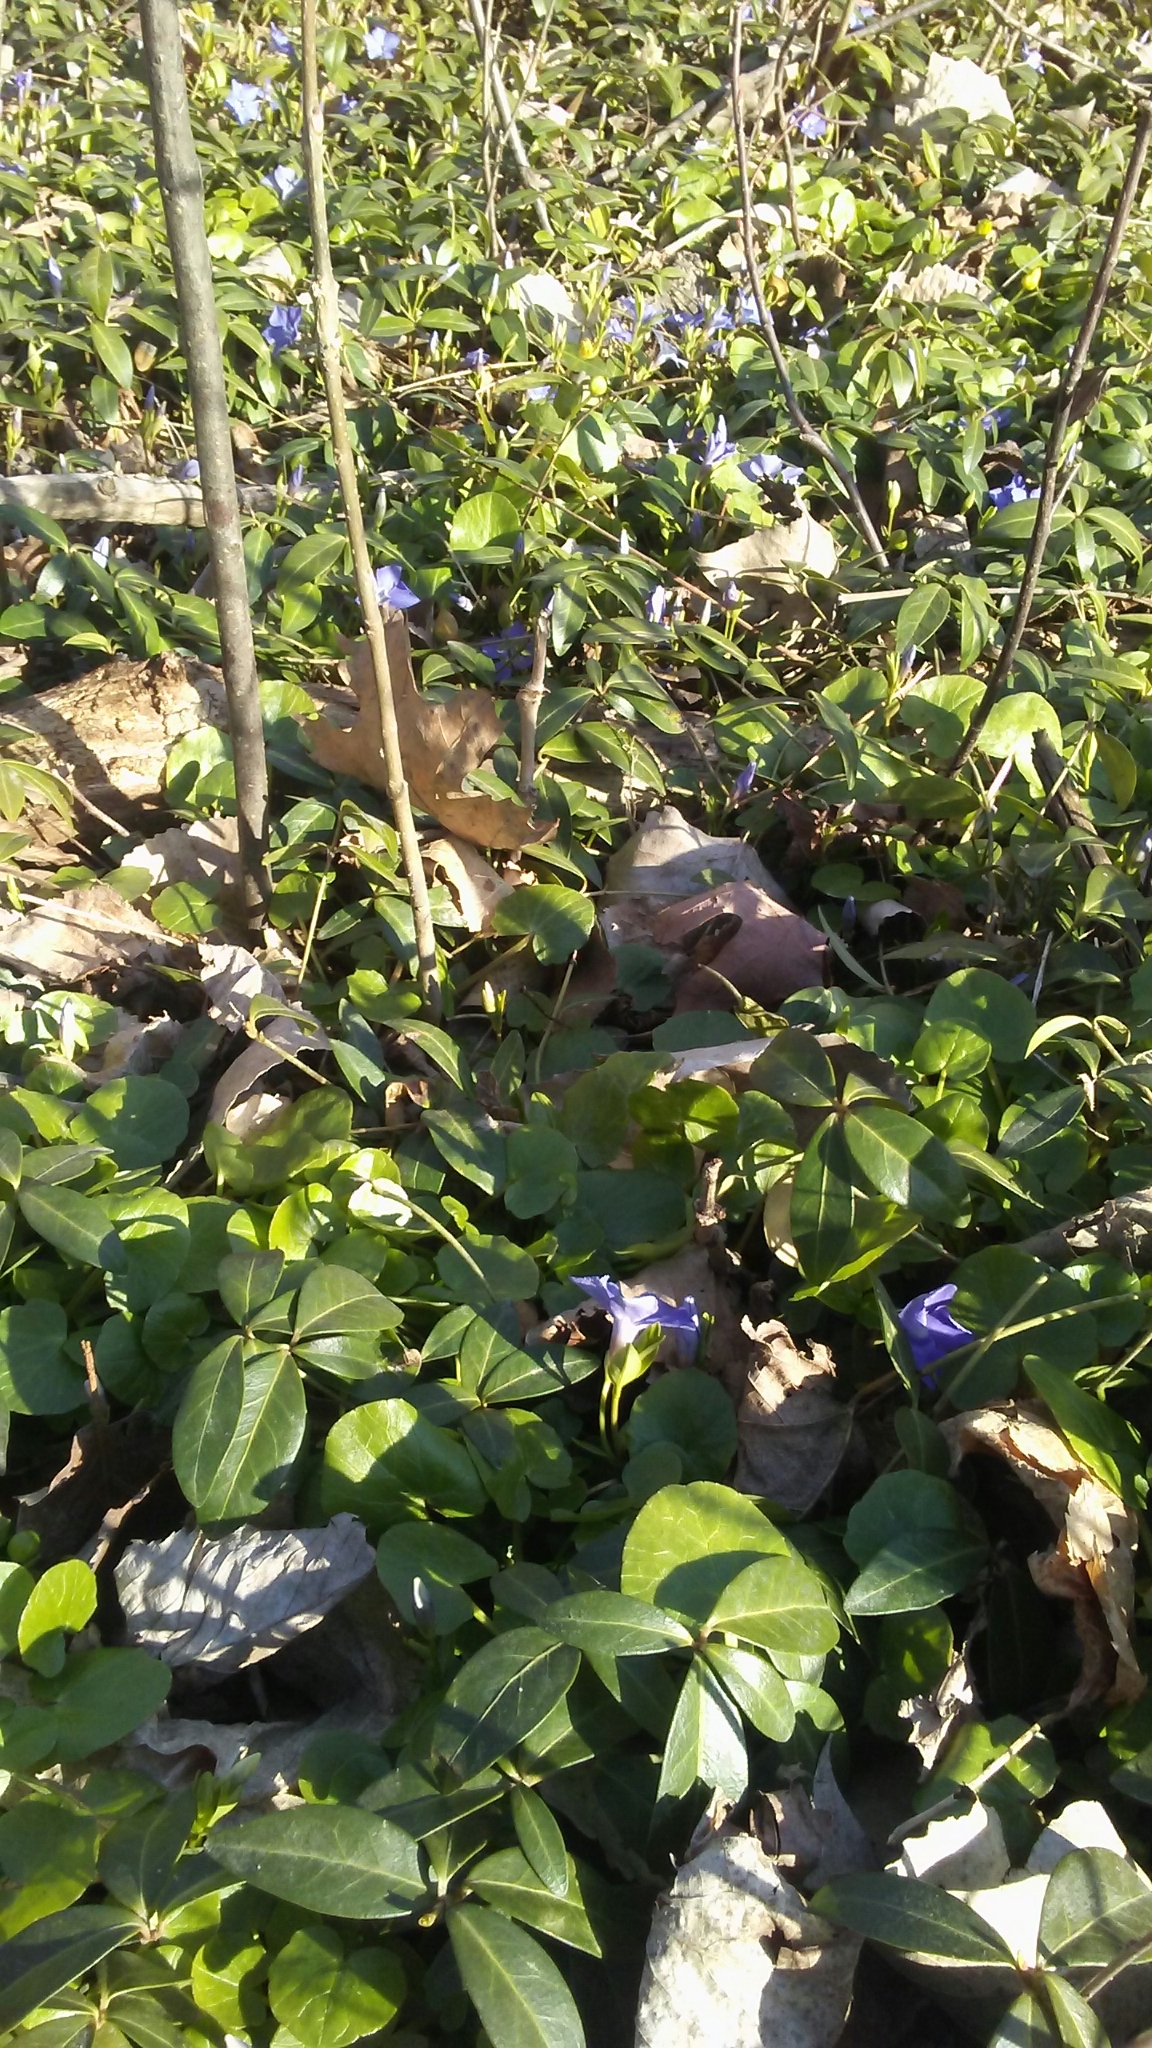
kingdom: Plantae
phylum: Tracheophyta
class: Magnoliopsida
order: Gentianales
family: Apocynaceae
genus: Vinca
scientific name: Vinca minor
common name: Lesser periwinkle
